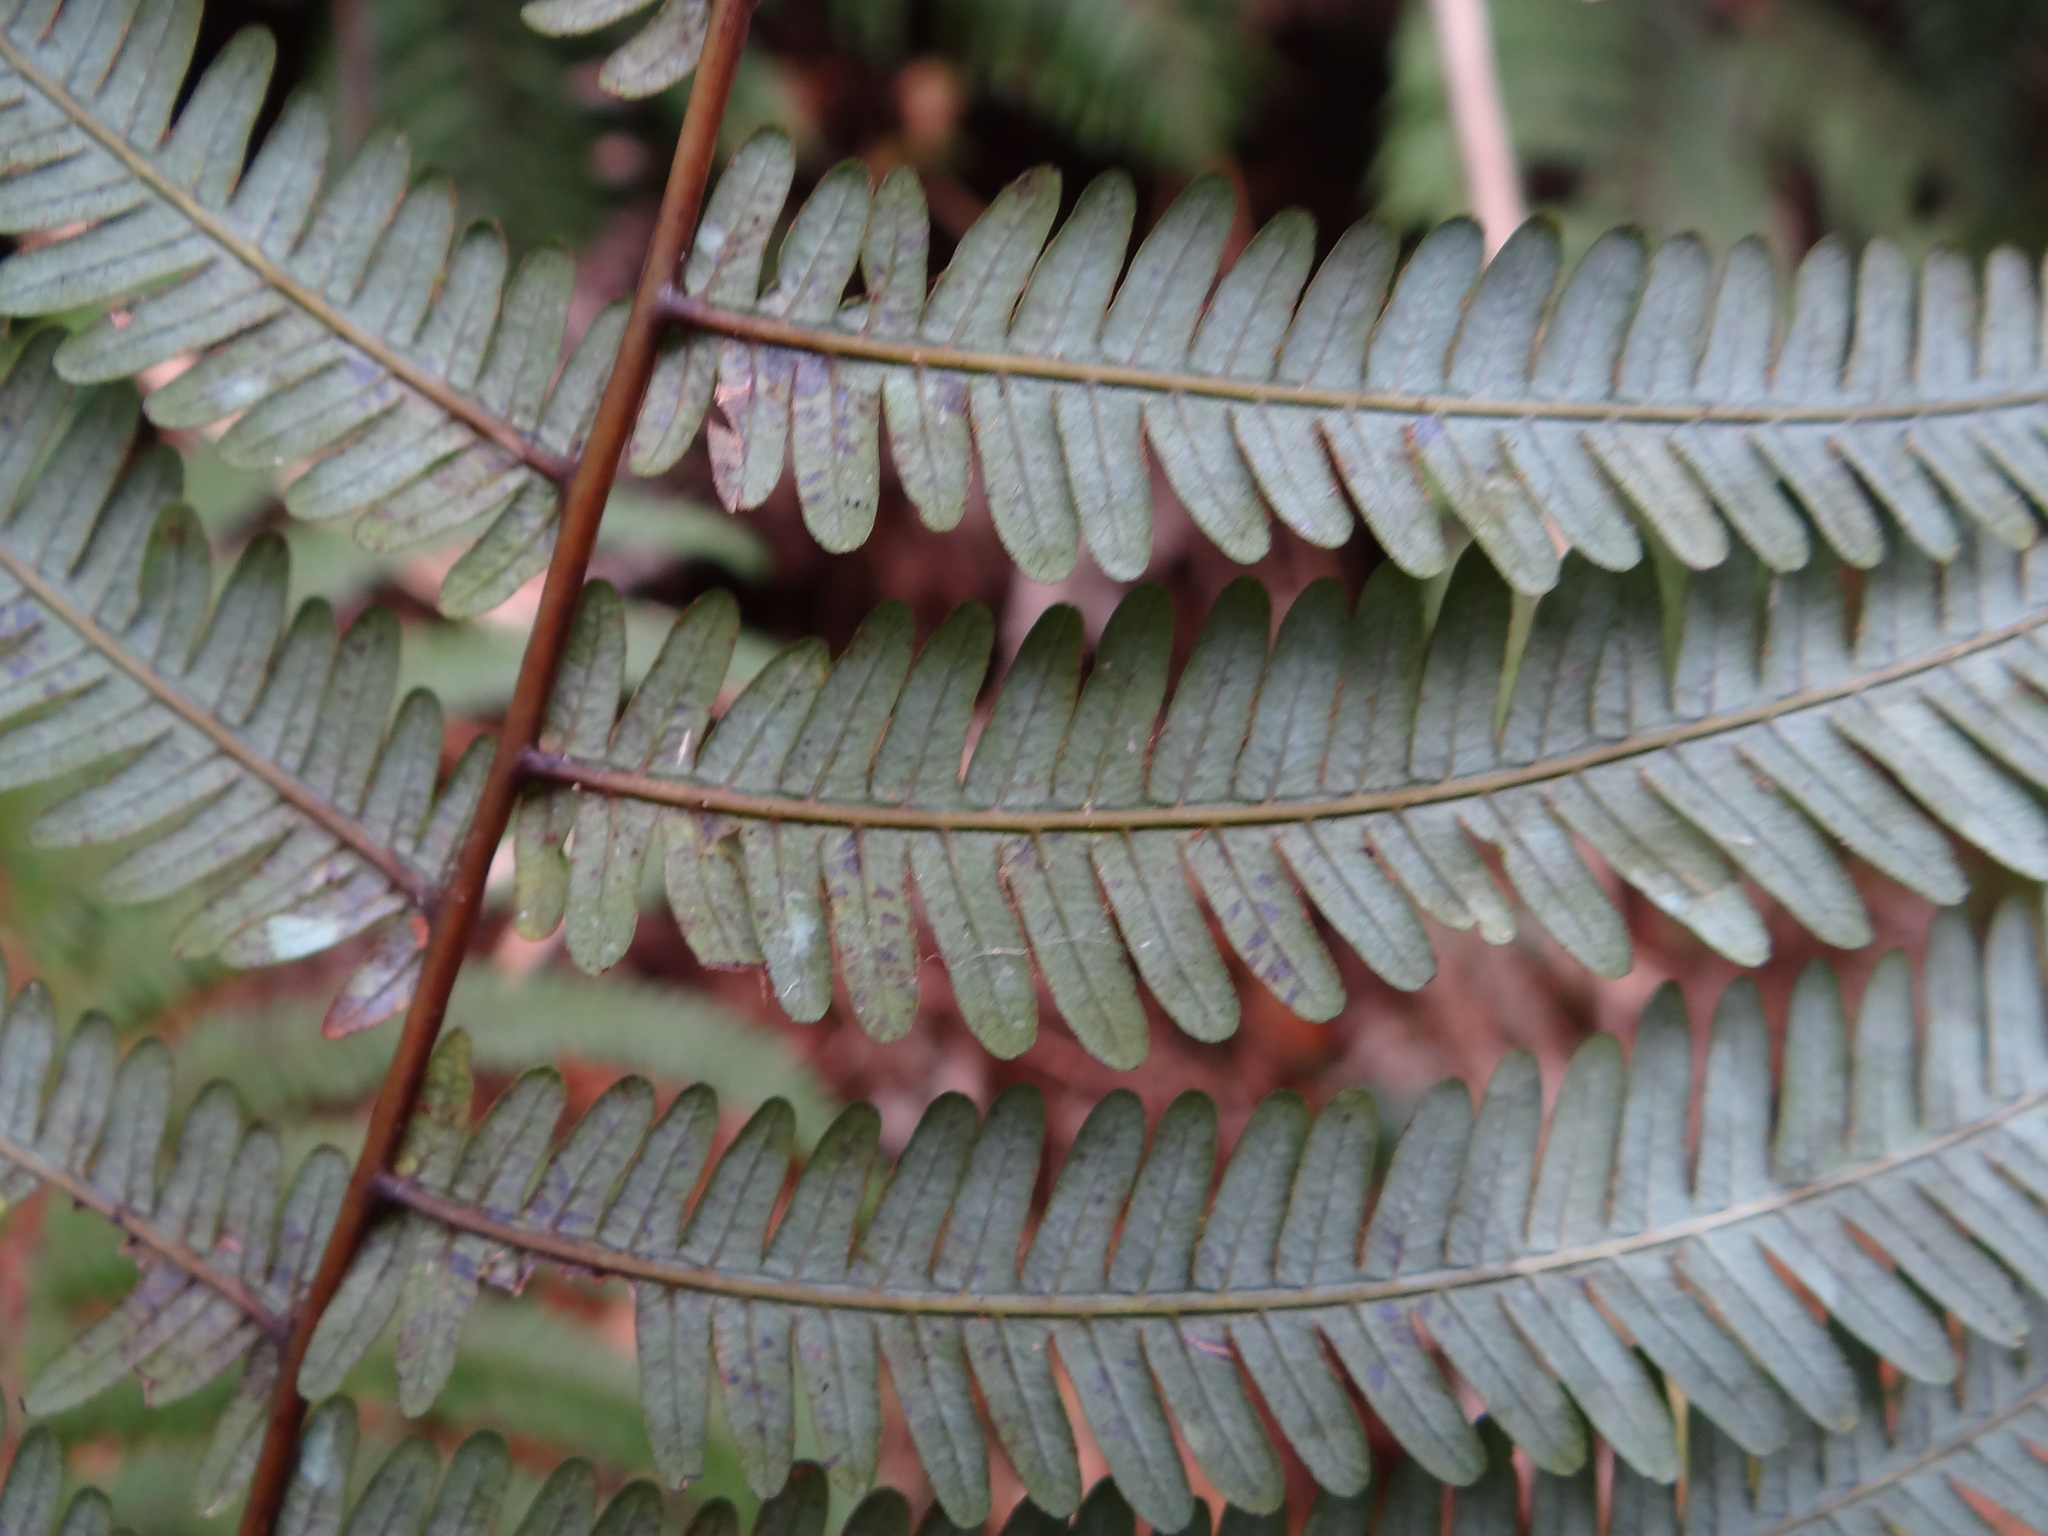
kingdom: Plantae
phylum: Tracheophyta
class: Polypodiopsida
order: Gleicheniales
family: Gleicheniaceae
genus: Diplopterygium
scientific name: Diplopterygium glaucum
